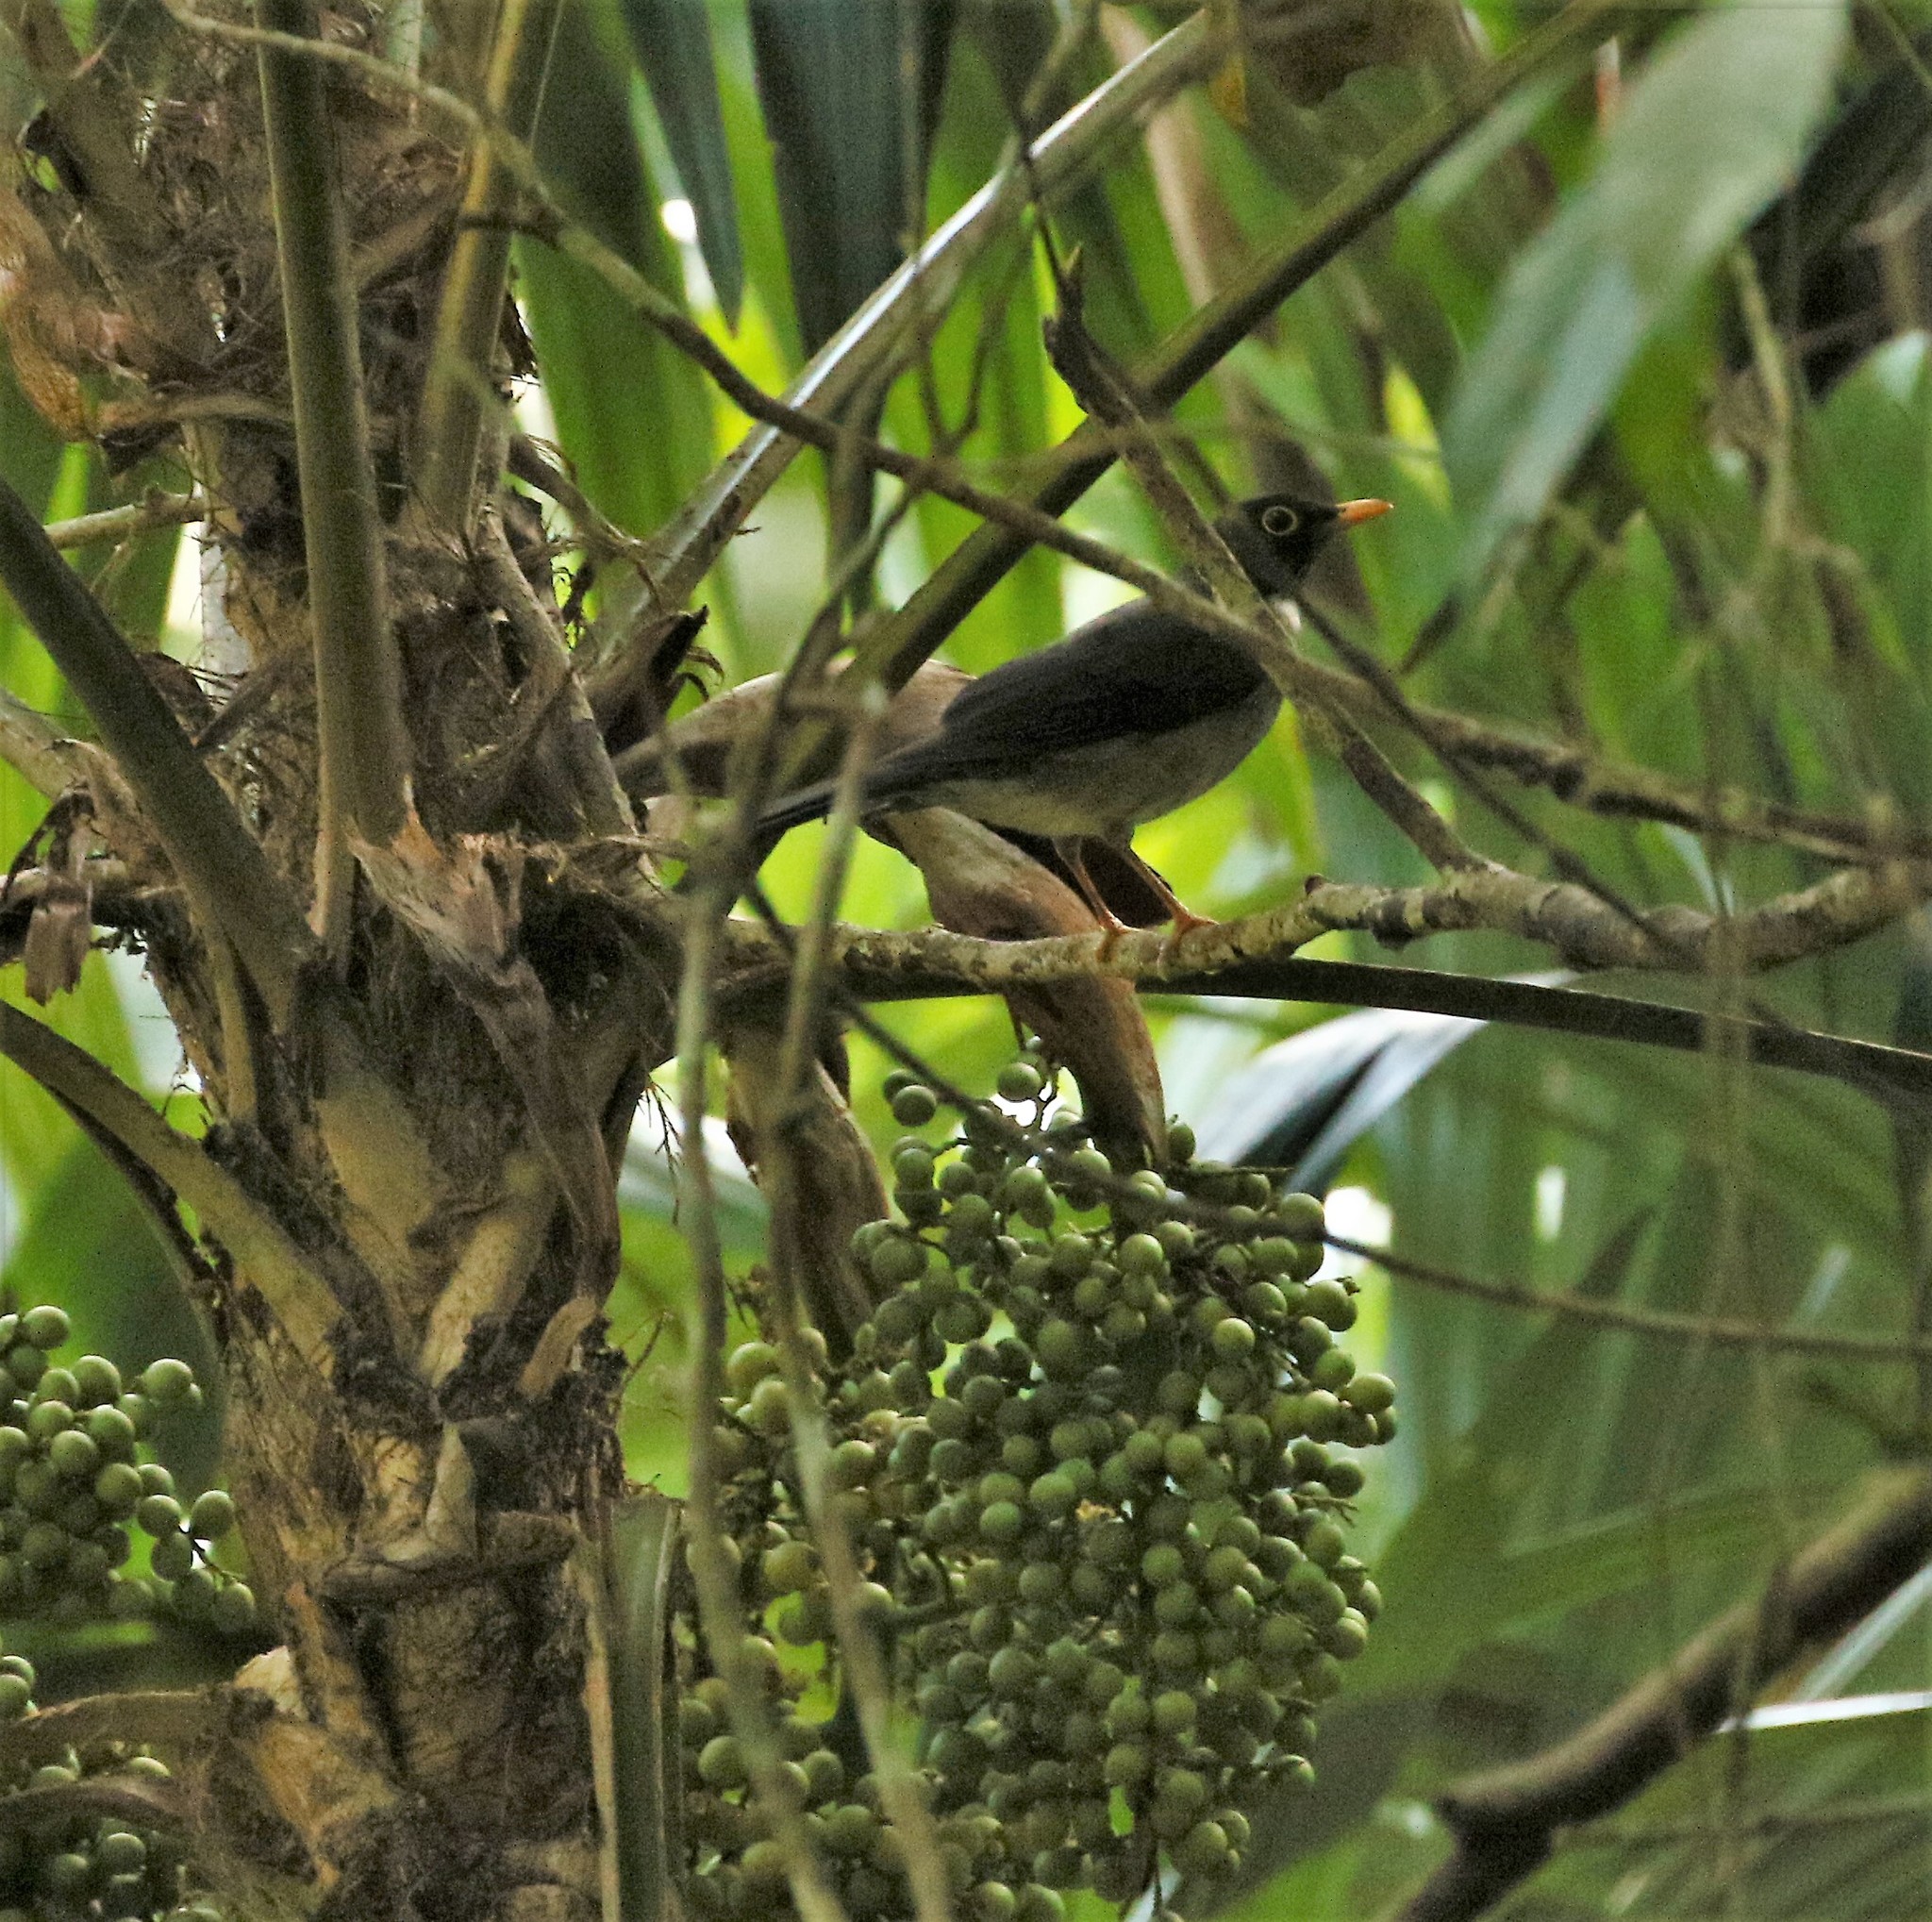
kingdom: Animalia
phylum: Chordata
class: Aves
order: Passeriformes
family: Turdidae
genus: Turdus
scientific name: Turdus assimilis
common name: White-throated thrush
